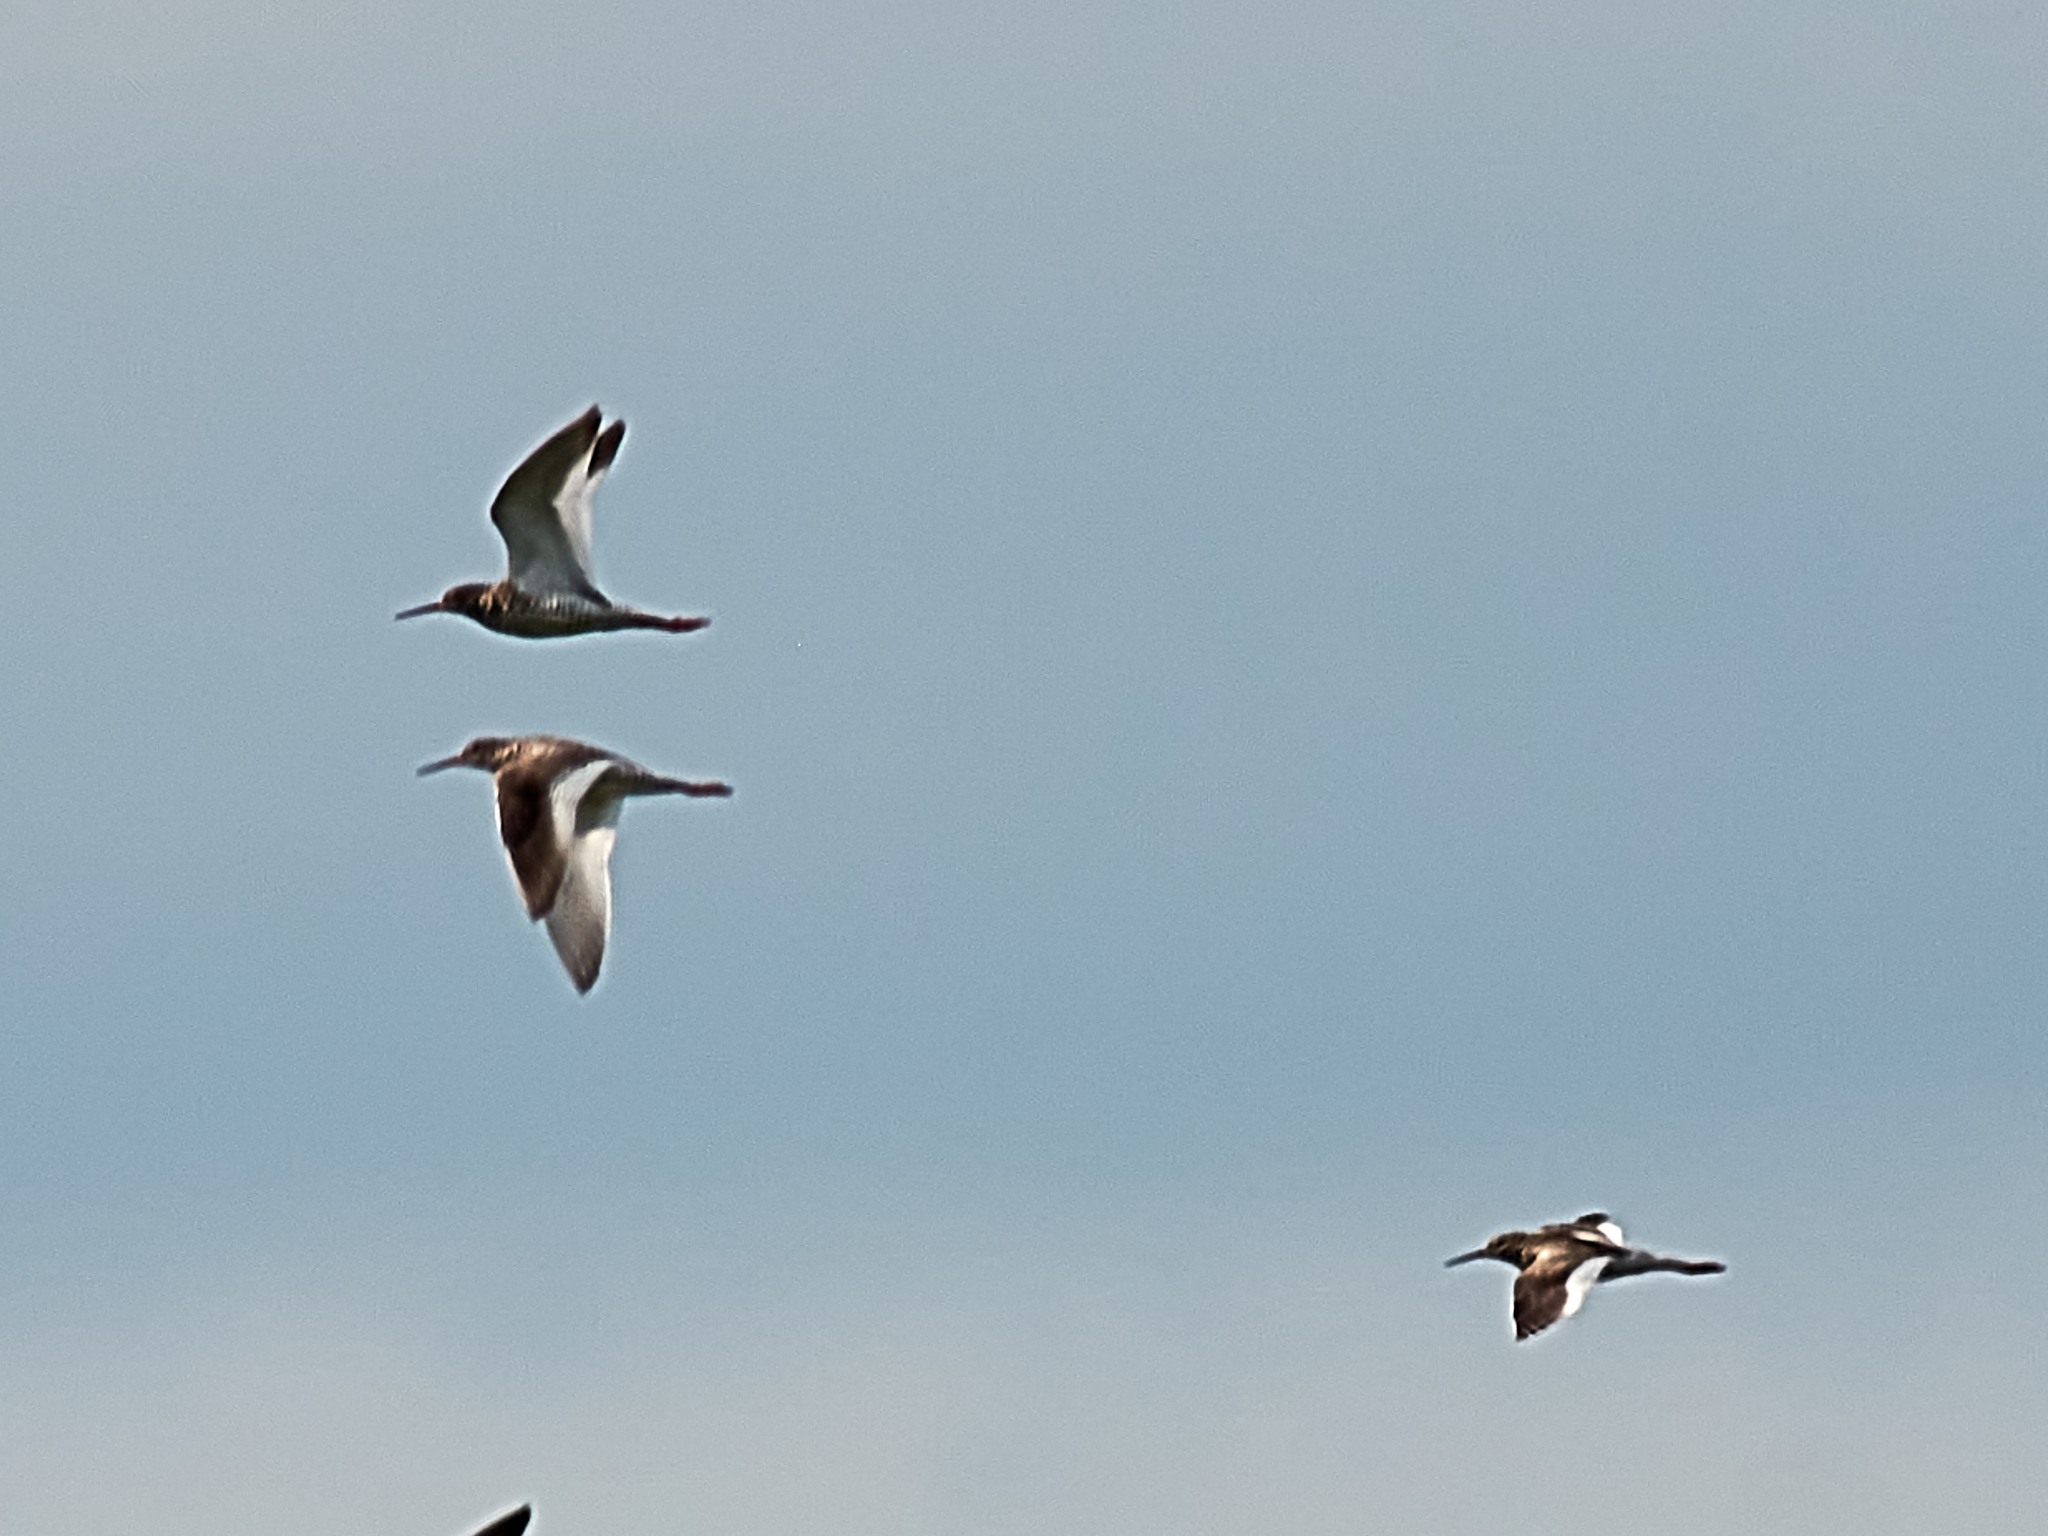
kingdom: Animalia
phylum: Chordata
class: Aves
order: Charadriiformes
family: Scolopacidae
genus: Tringa
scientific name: Tringa totanus
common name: Common redshank
